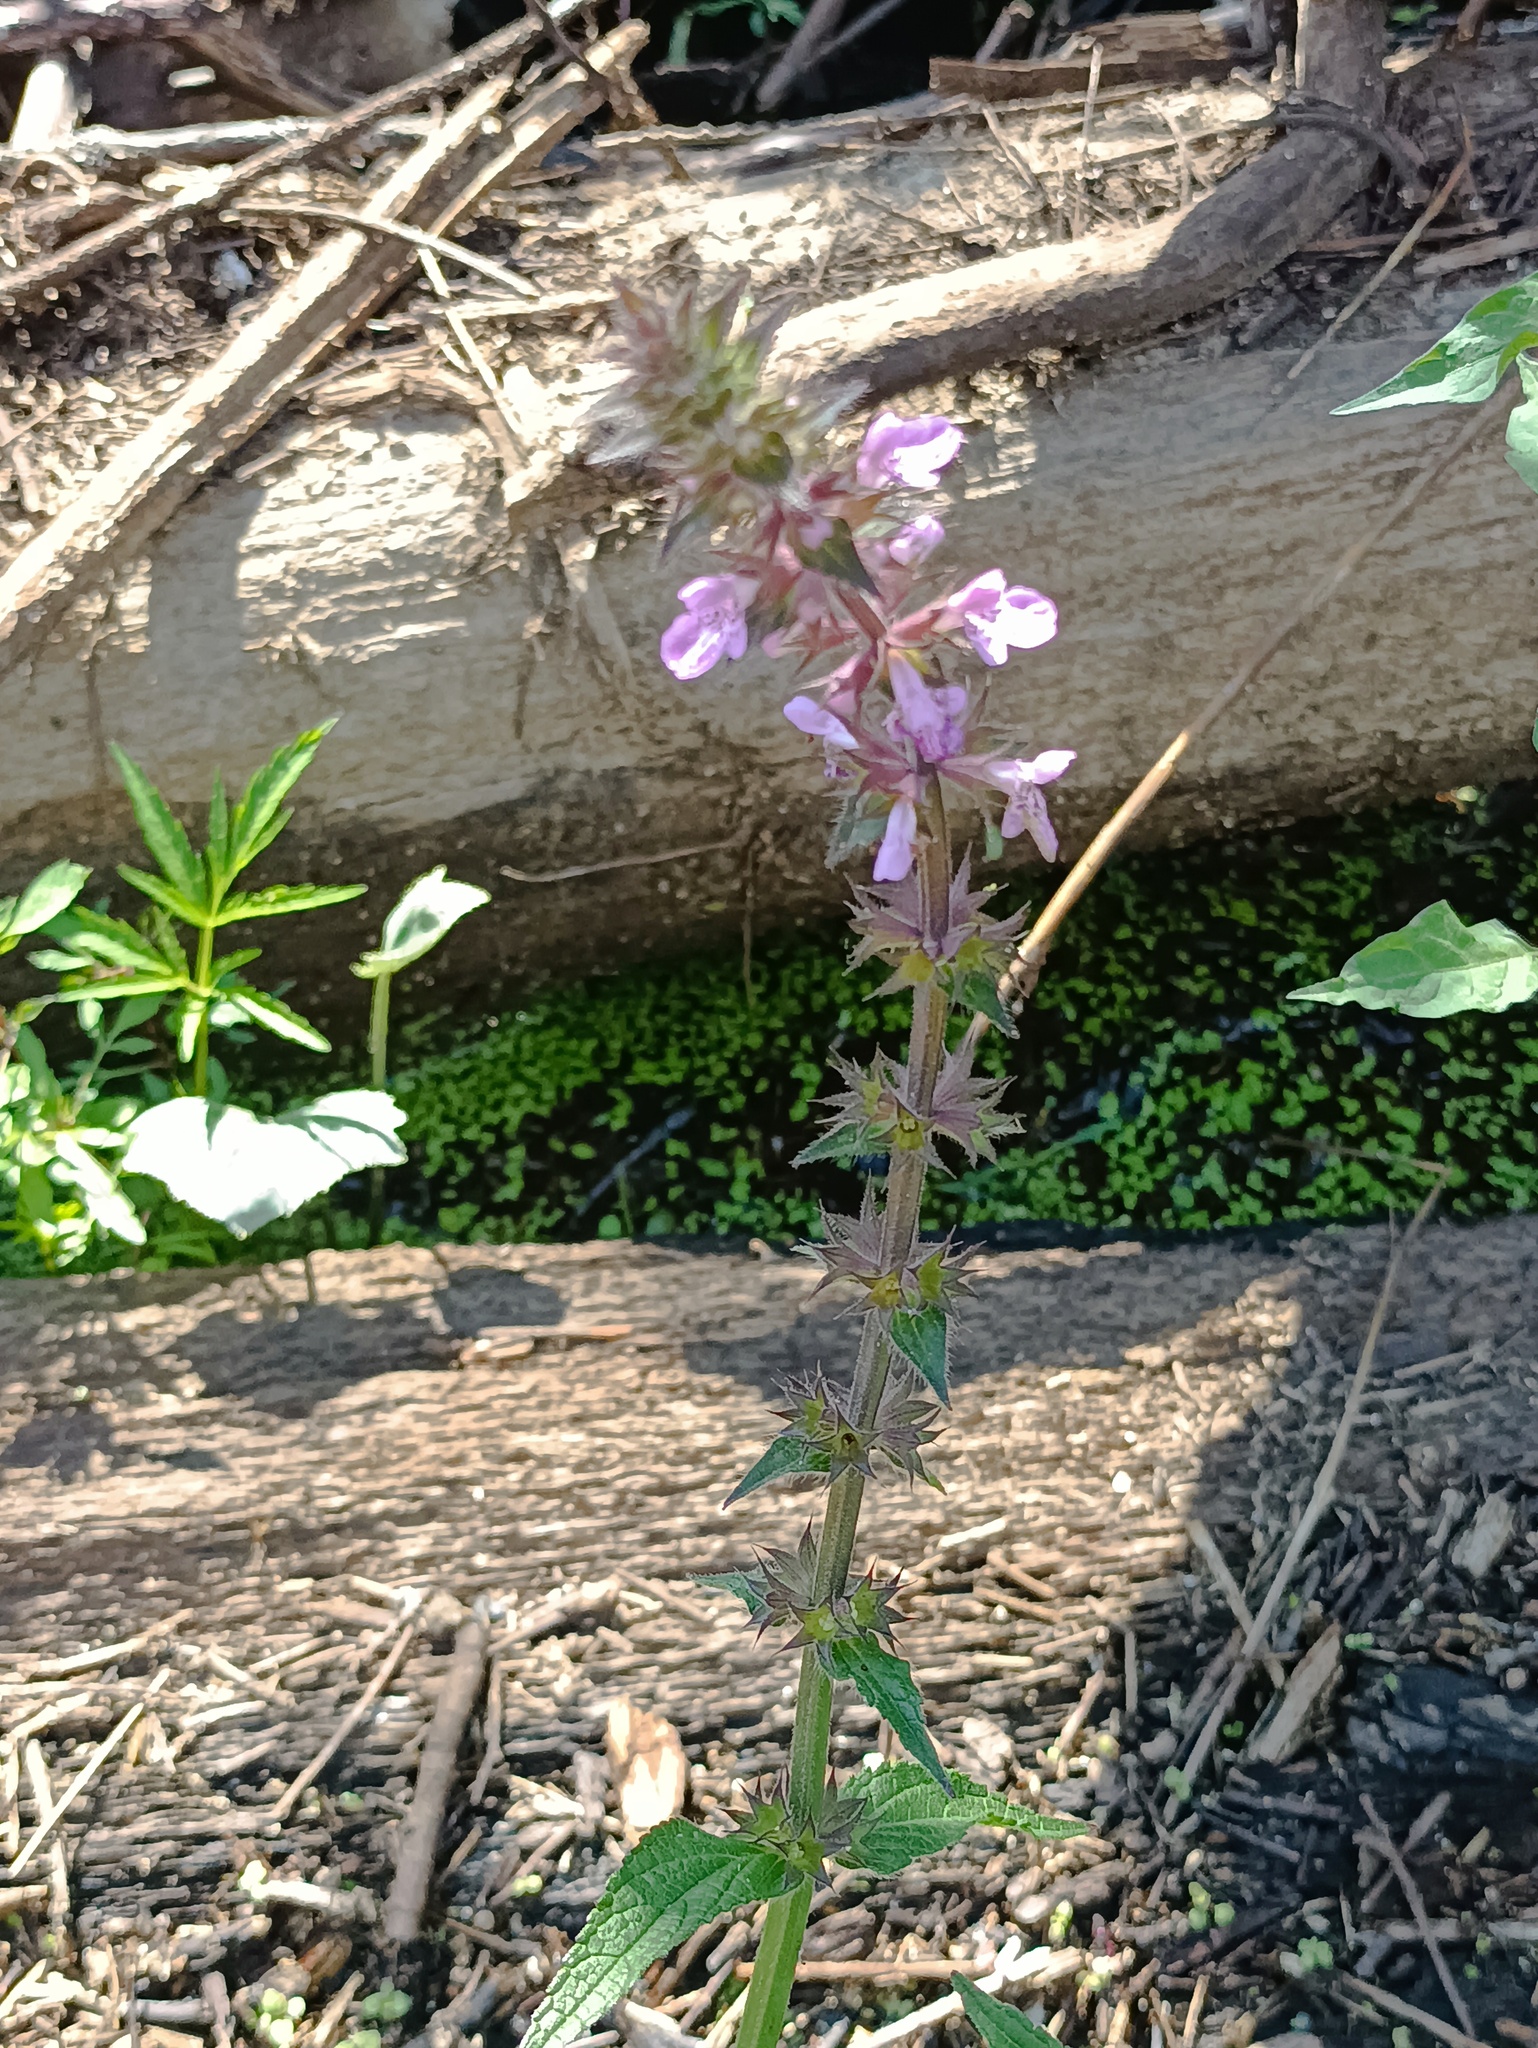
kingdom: Plantae
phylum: Tracheophyta
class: Magnoliopsida
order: Lamiales
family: Lamiaceae
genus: Stachys
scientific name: Stachys palustris
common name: Marsh woundwort
